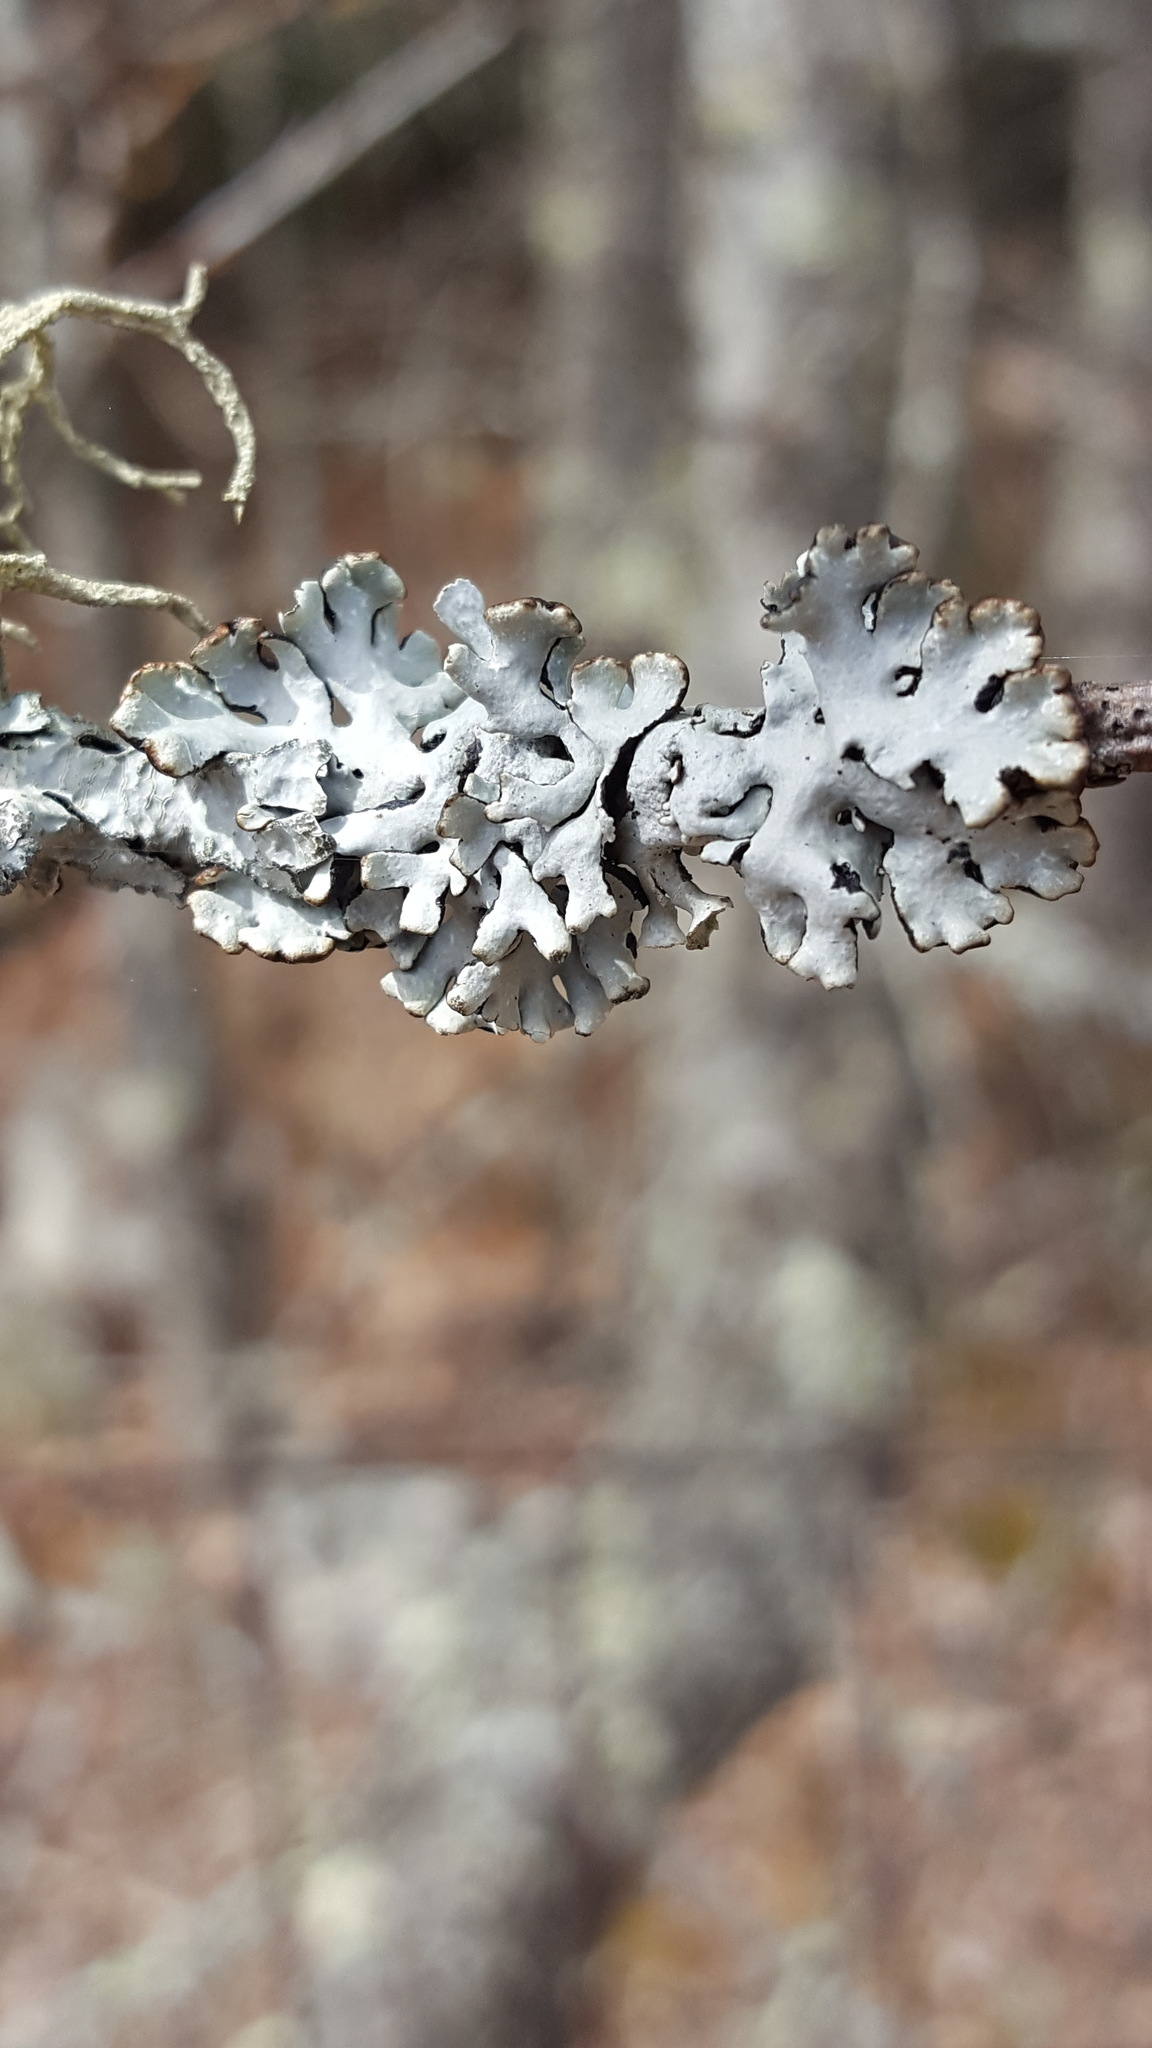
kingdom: Fungi
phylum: Ascomycota
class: Lecanoromycetes
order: Lecanorales
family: Parmeliaceae
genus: Hypogymnia
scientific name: Hypogymnia physodes
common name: Dark crottle
